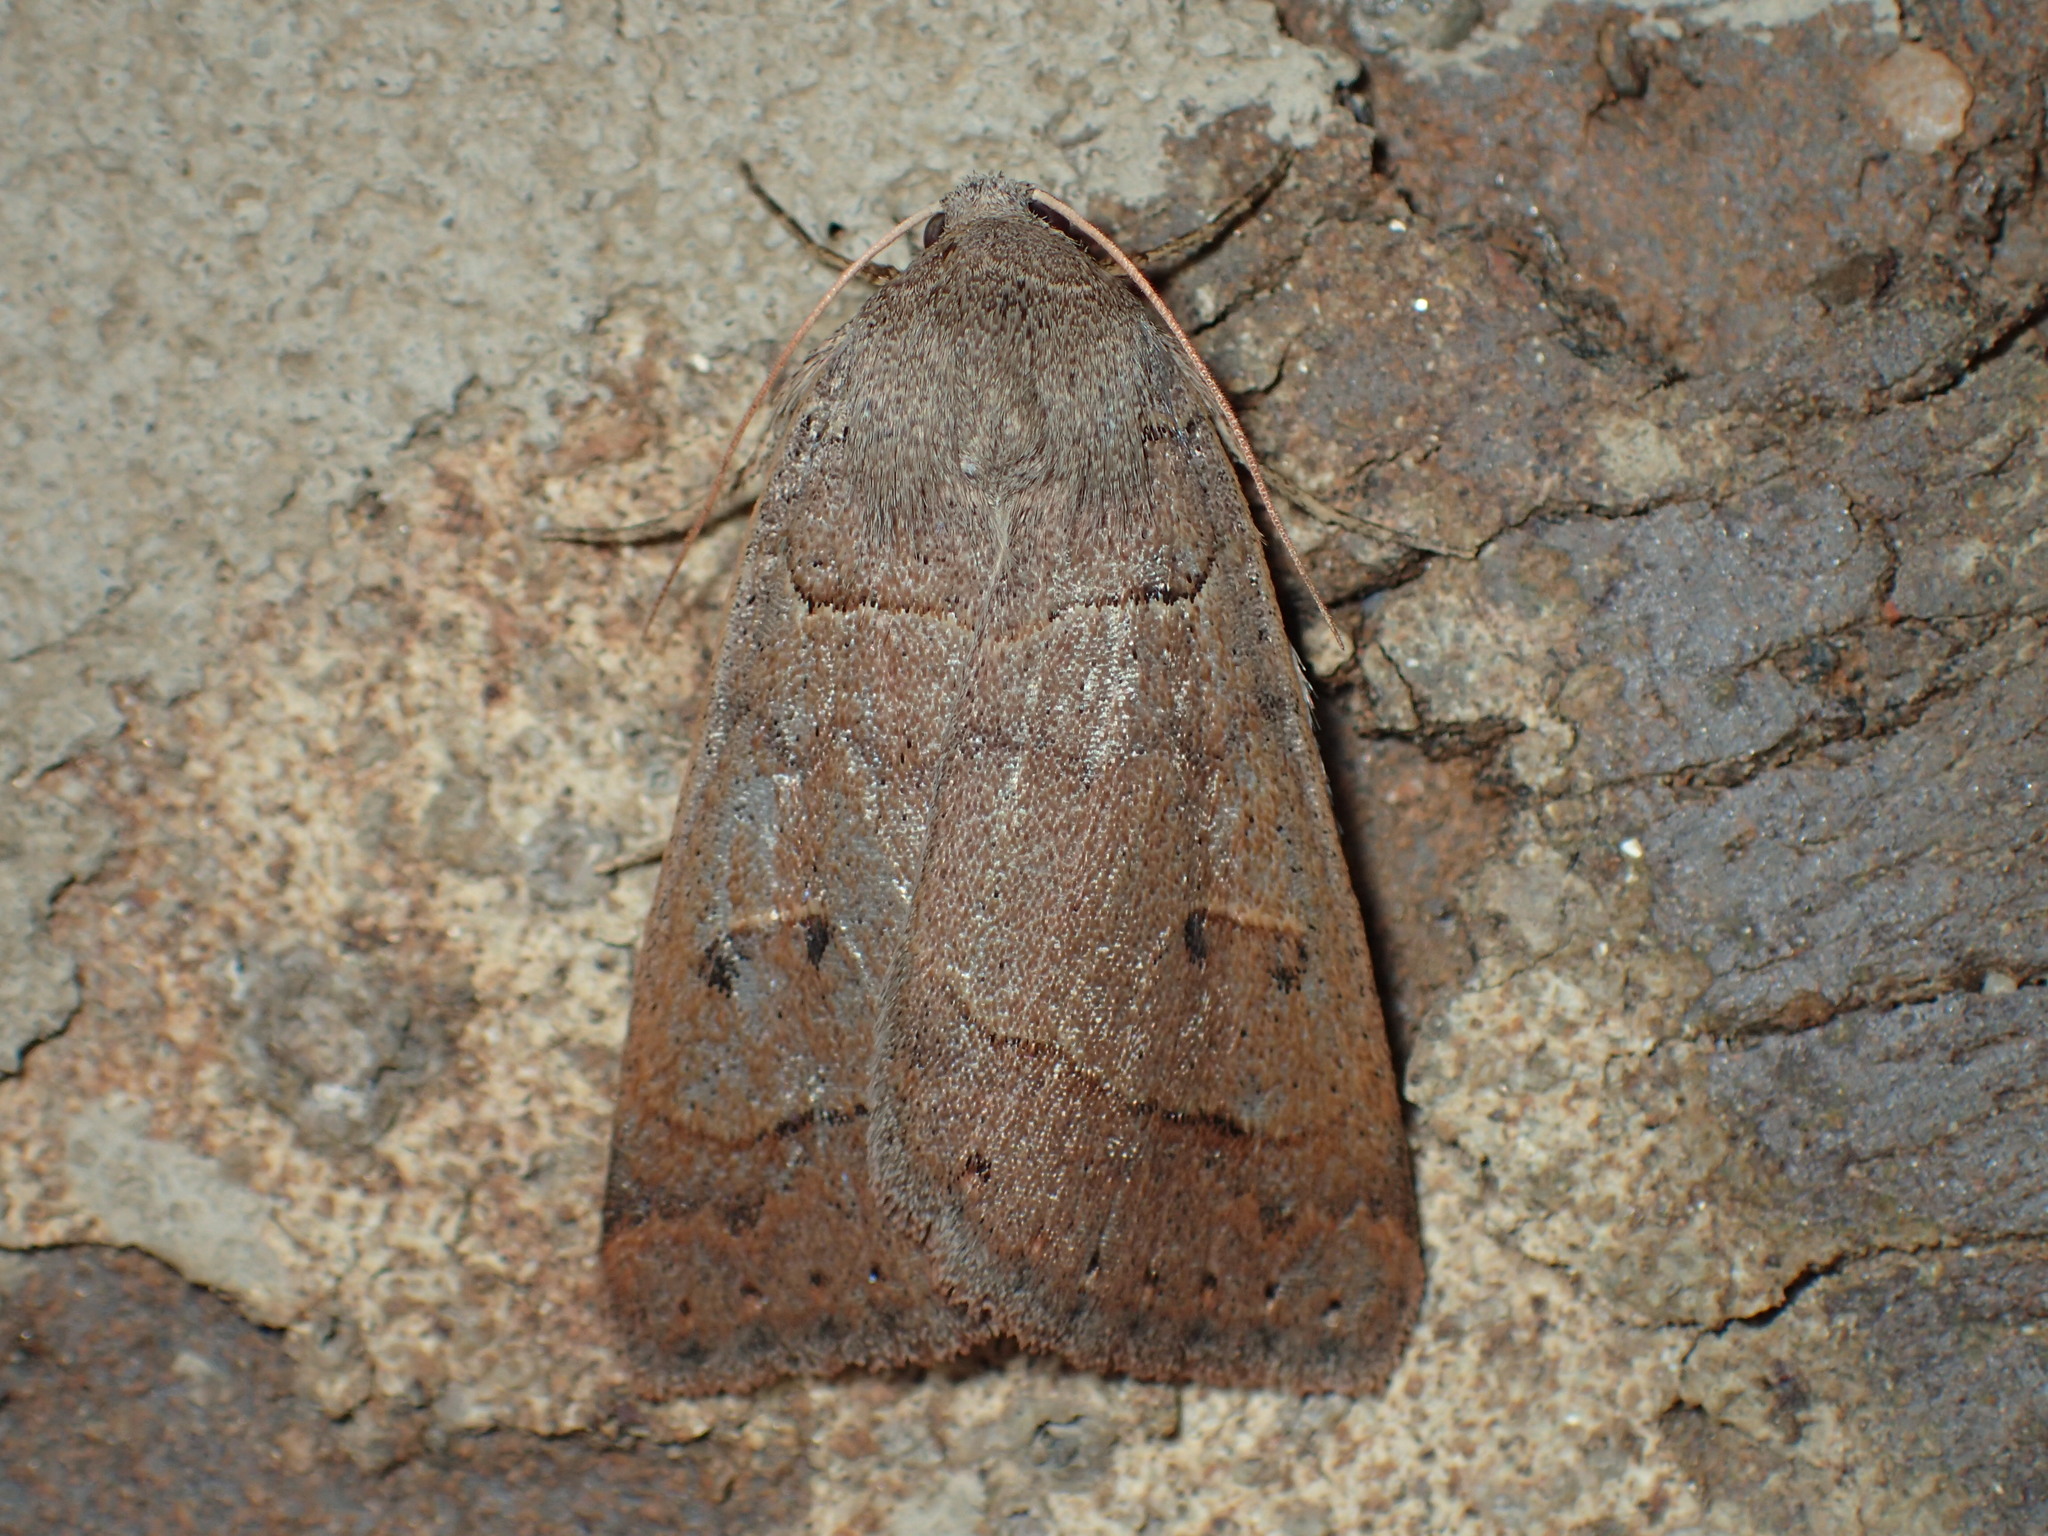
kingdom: Animalia
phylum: Arthropoda
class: Insecta
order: Lepidoptera
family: Erebidae
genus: Phoberia
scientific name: Phoberia atomaris
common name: Common oak moth
